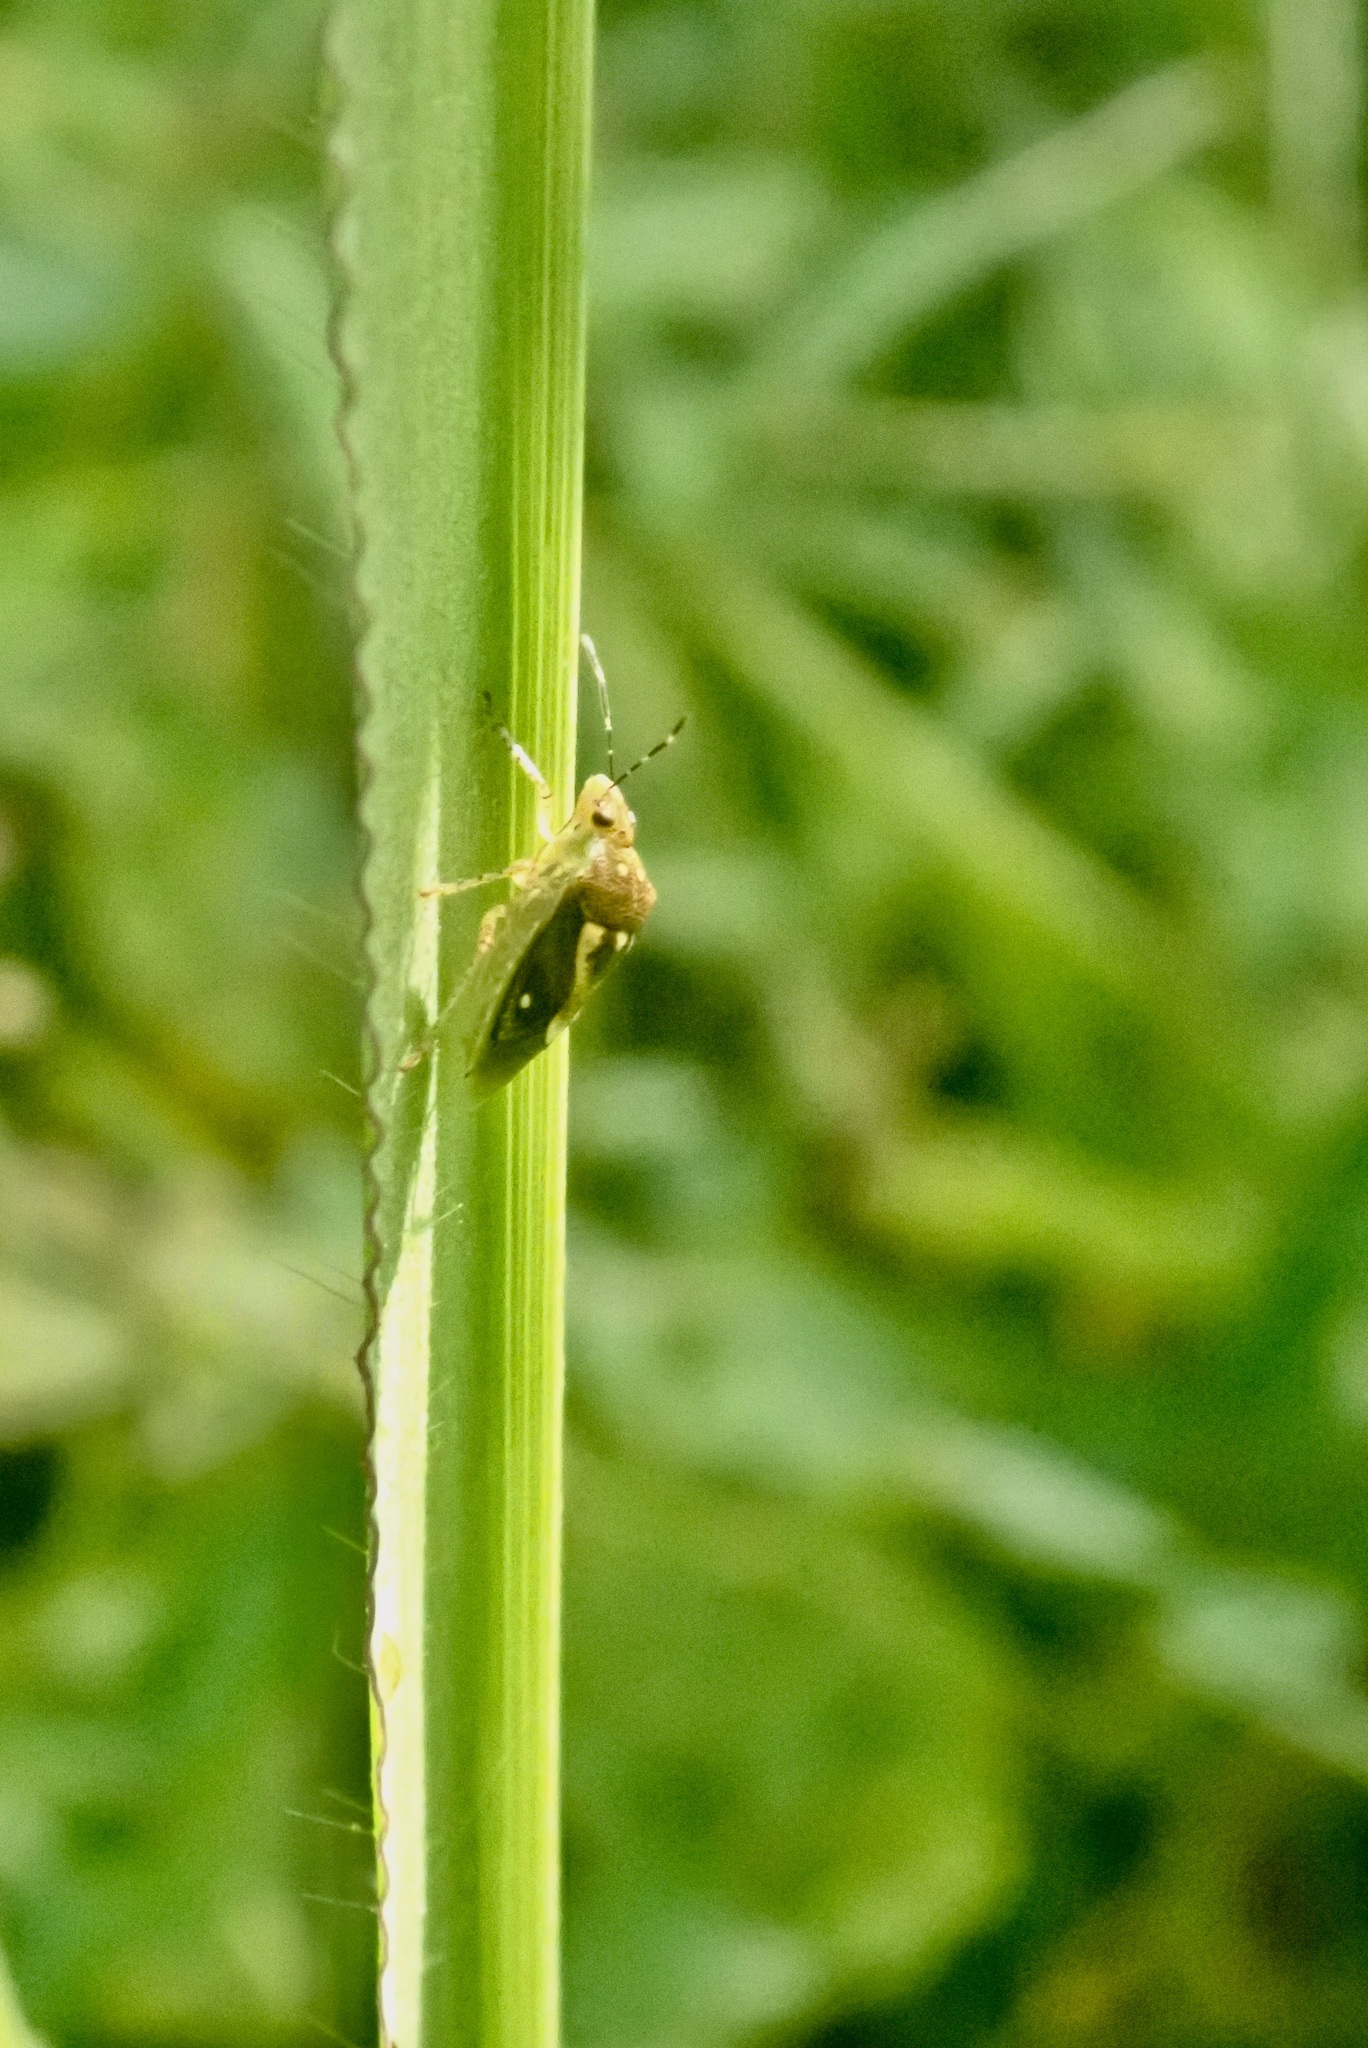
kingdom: Animalia
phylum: Arthropoda
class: Insecta
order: Hemiptera
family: Pentatomidae
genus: Mormidea
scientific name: Mormidea ypsilon
